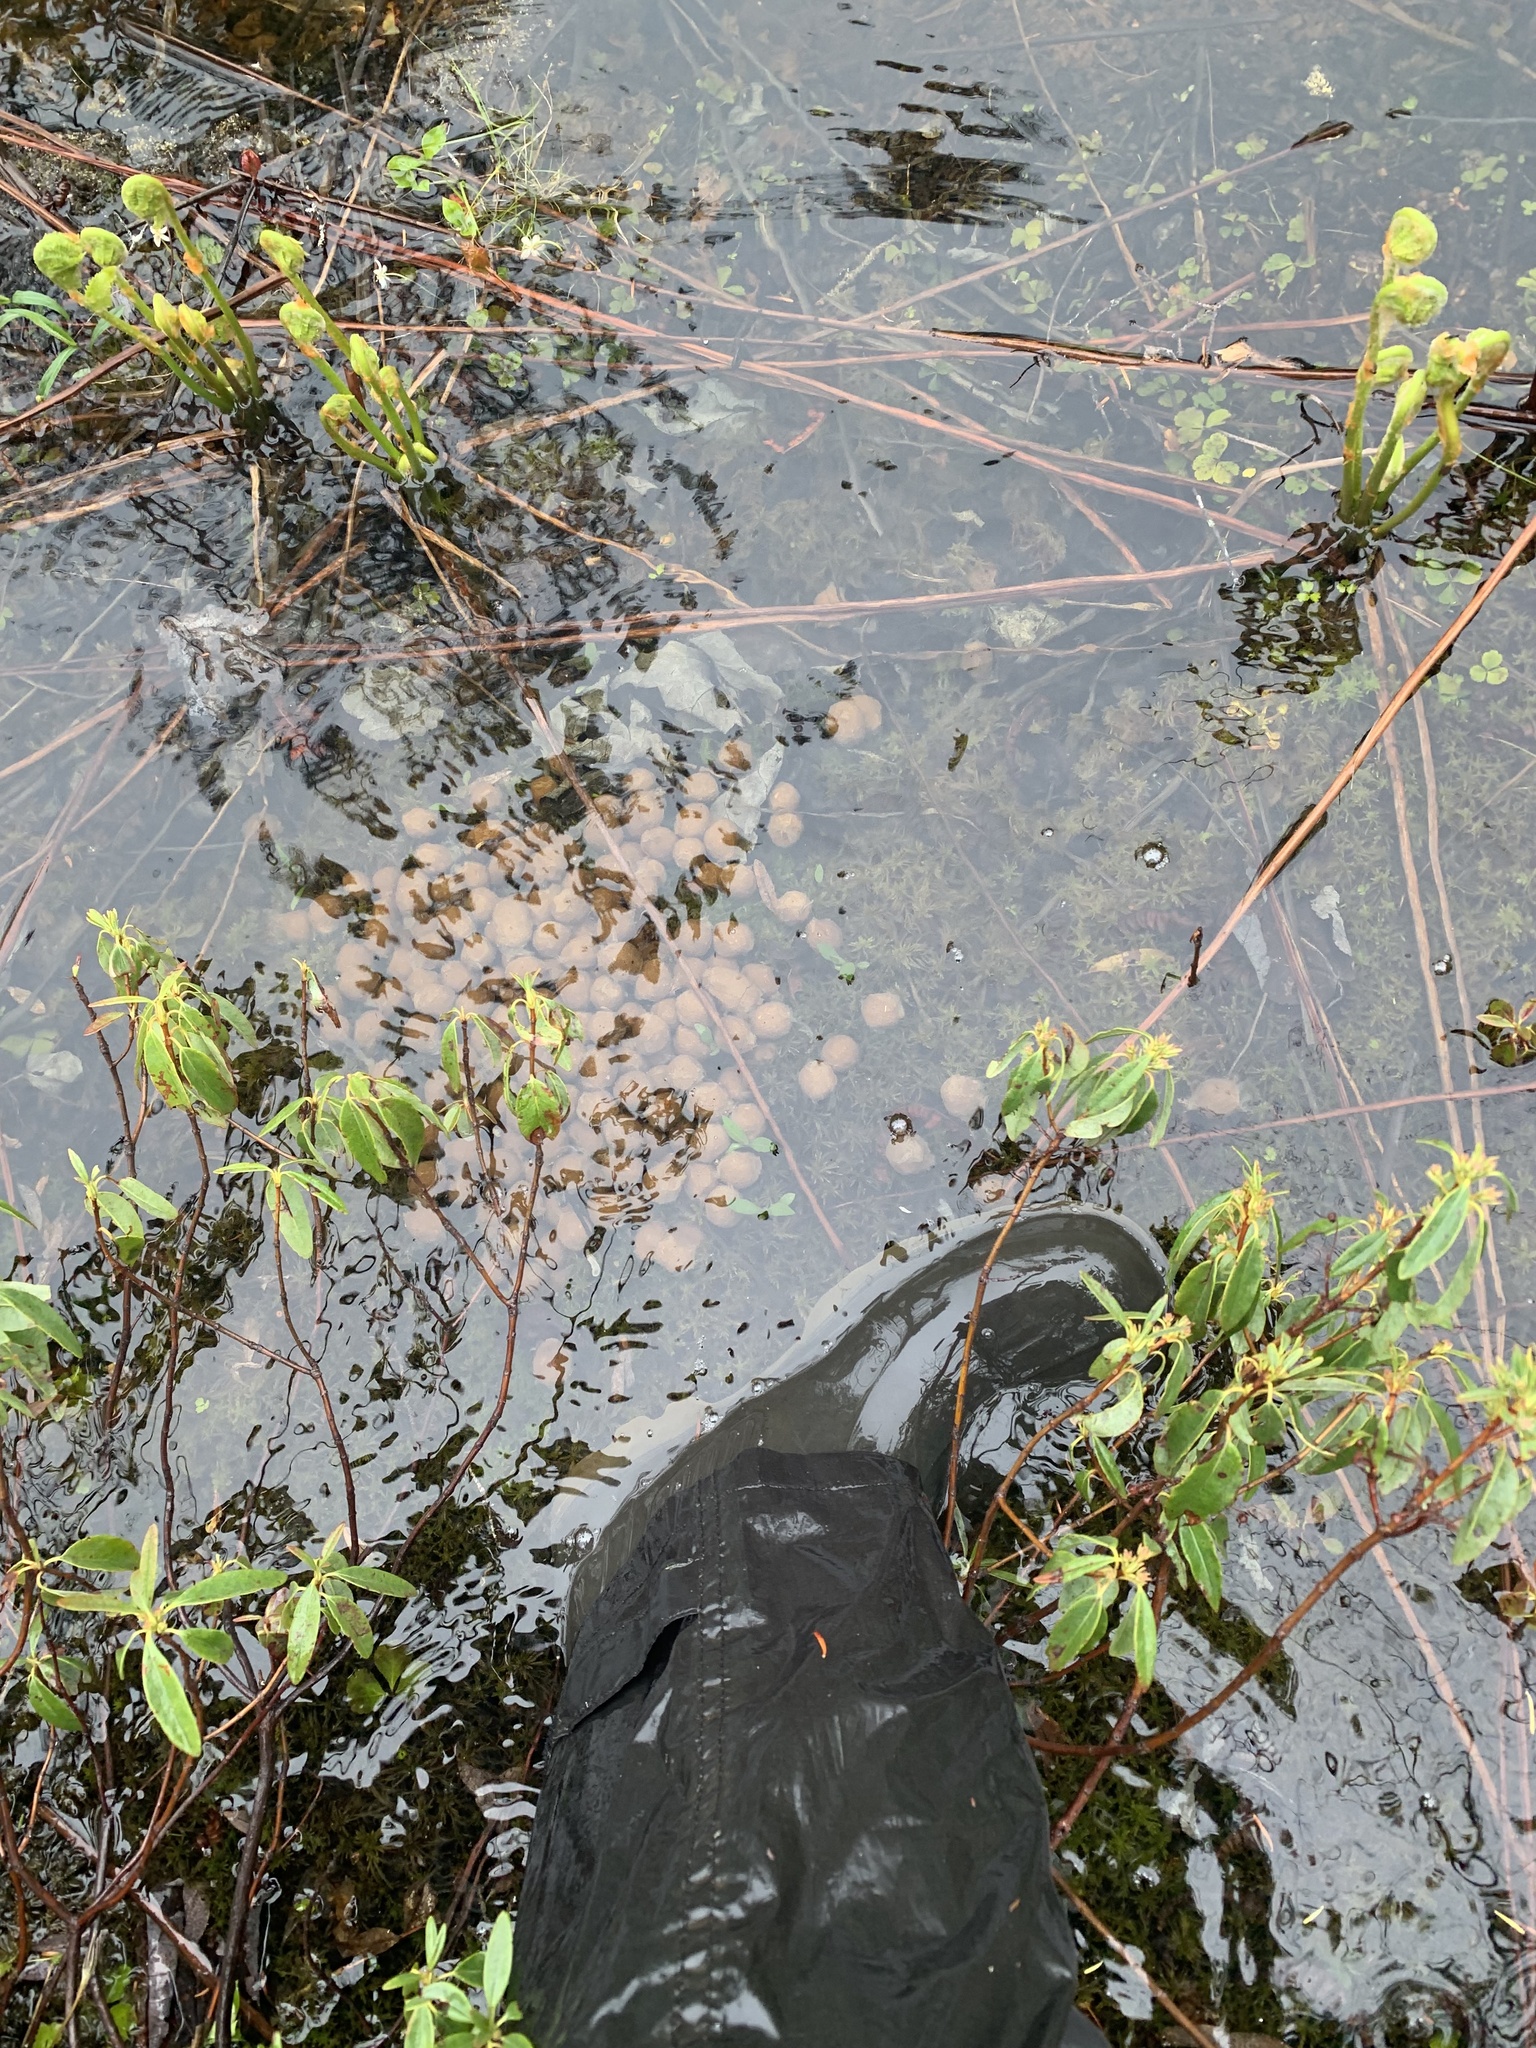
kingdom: Animalia
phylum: Chordata
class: Mammalia
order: Artiodactyla
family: Cervidae
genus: Alces
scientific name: Alces alces
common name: Moose
